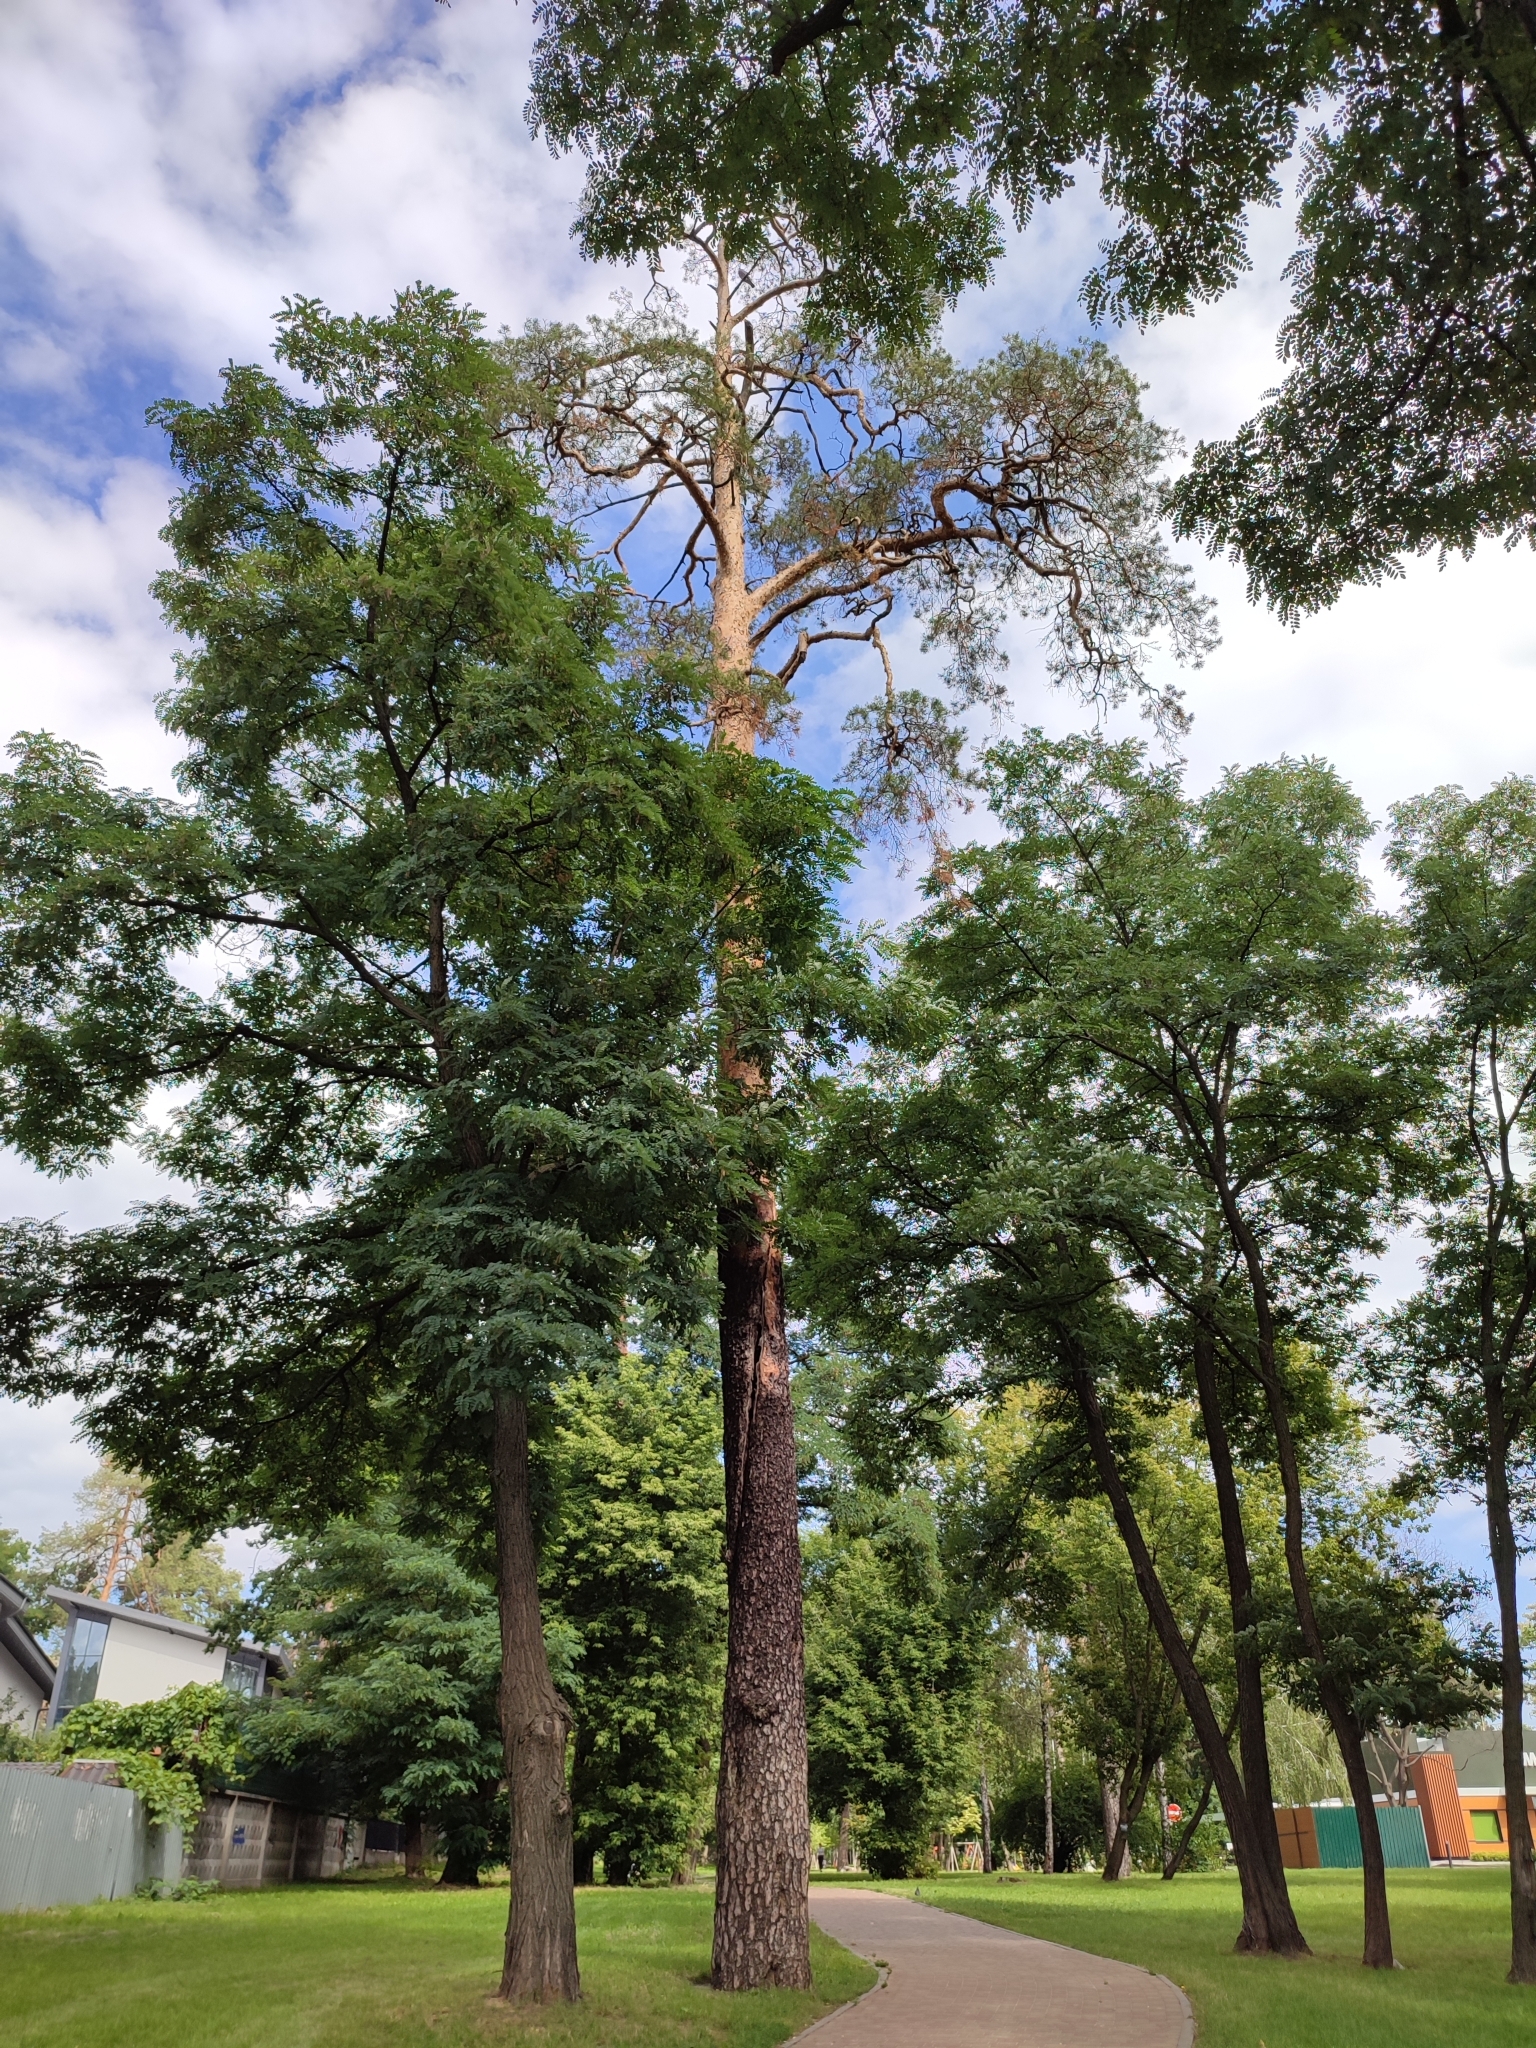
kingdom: Plantae
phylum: Tracheophyta
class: Pinopsida
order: Pinales
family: Pinaceae
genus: Pinus
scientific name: Pinus sylvestris
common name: Scots pine
